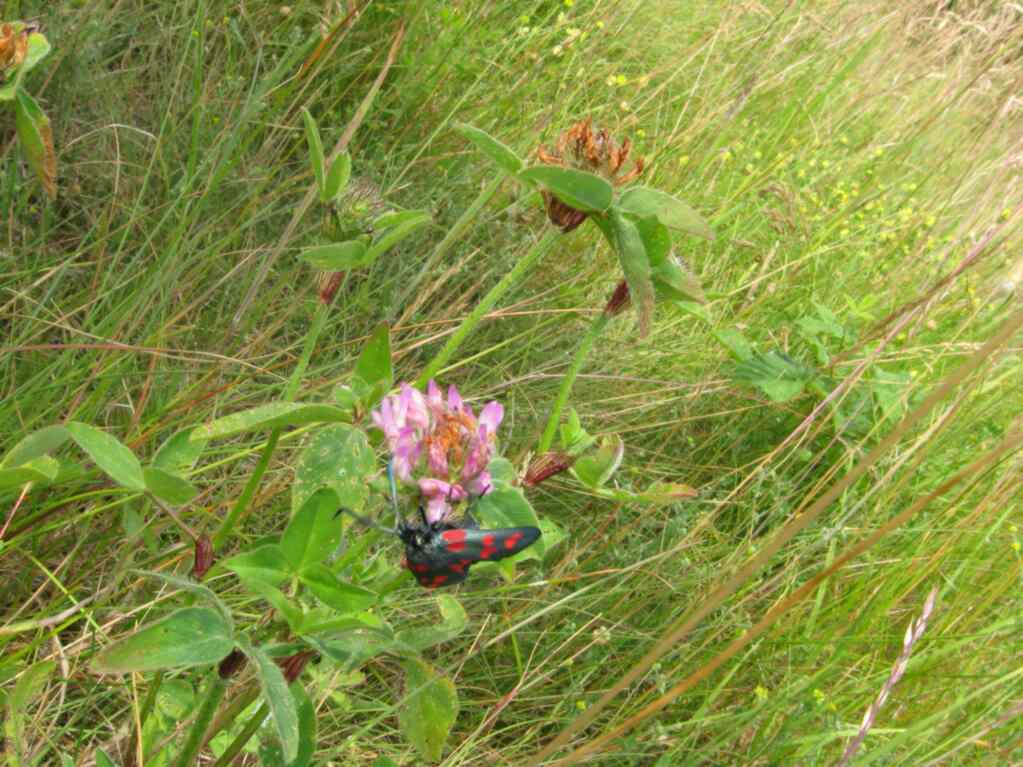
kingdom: Plantae
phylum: Tracheophyta
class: Magnoliopsida
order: Fabales
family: Fabaceae
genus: Trifolium
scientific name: Trifolium pratense
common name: Red clover
